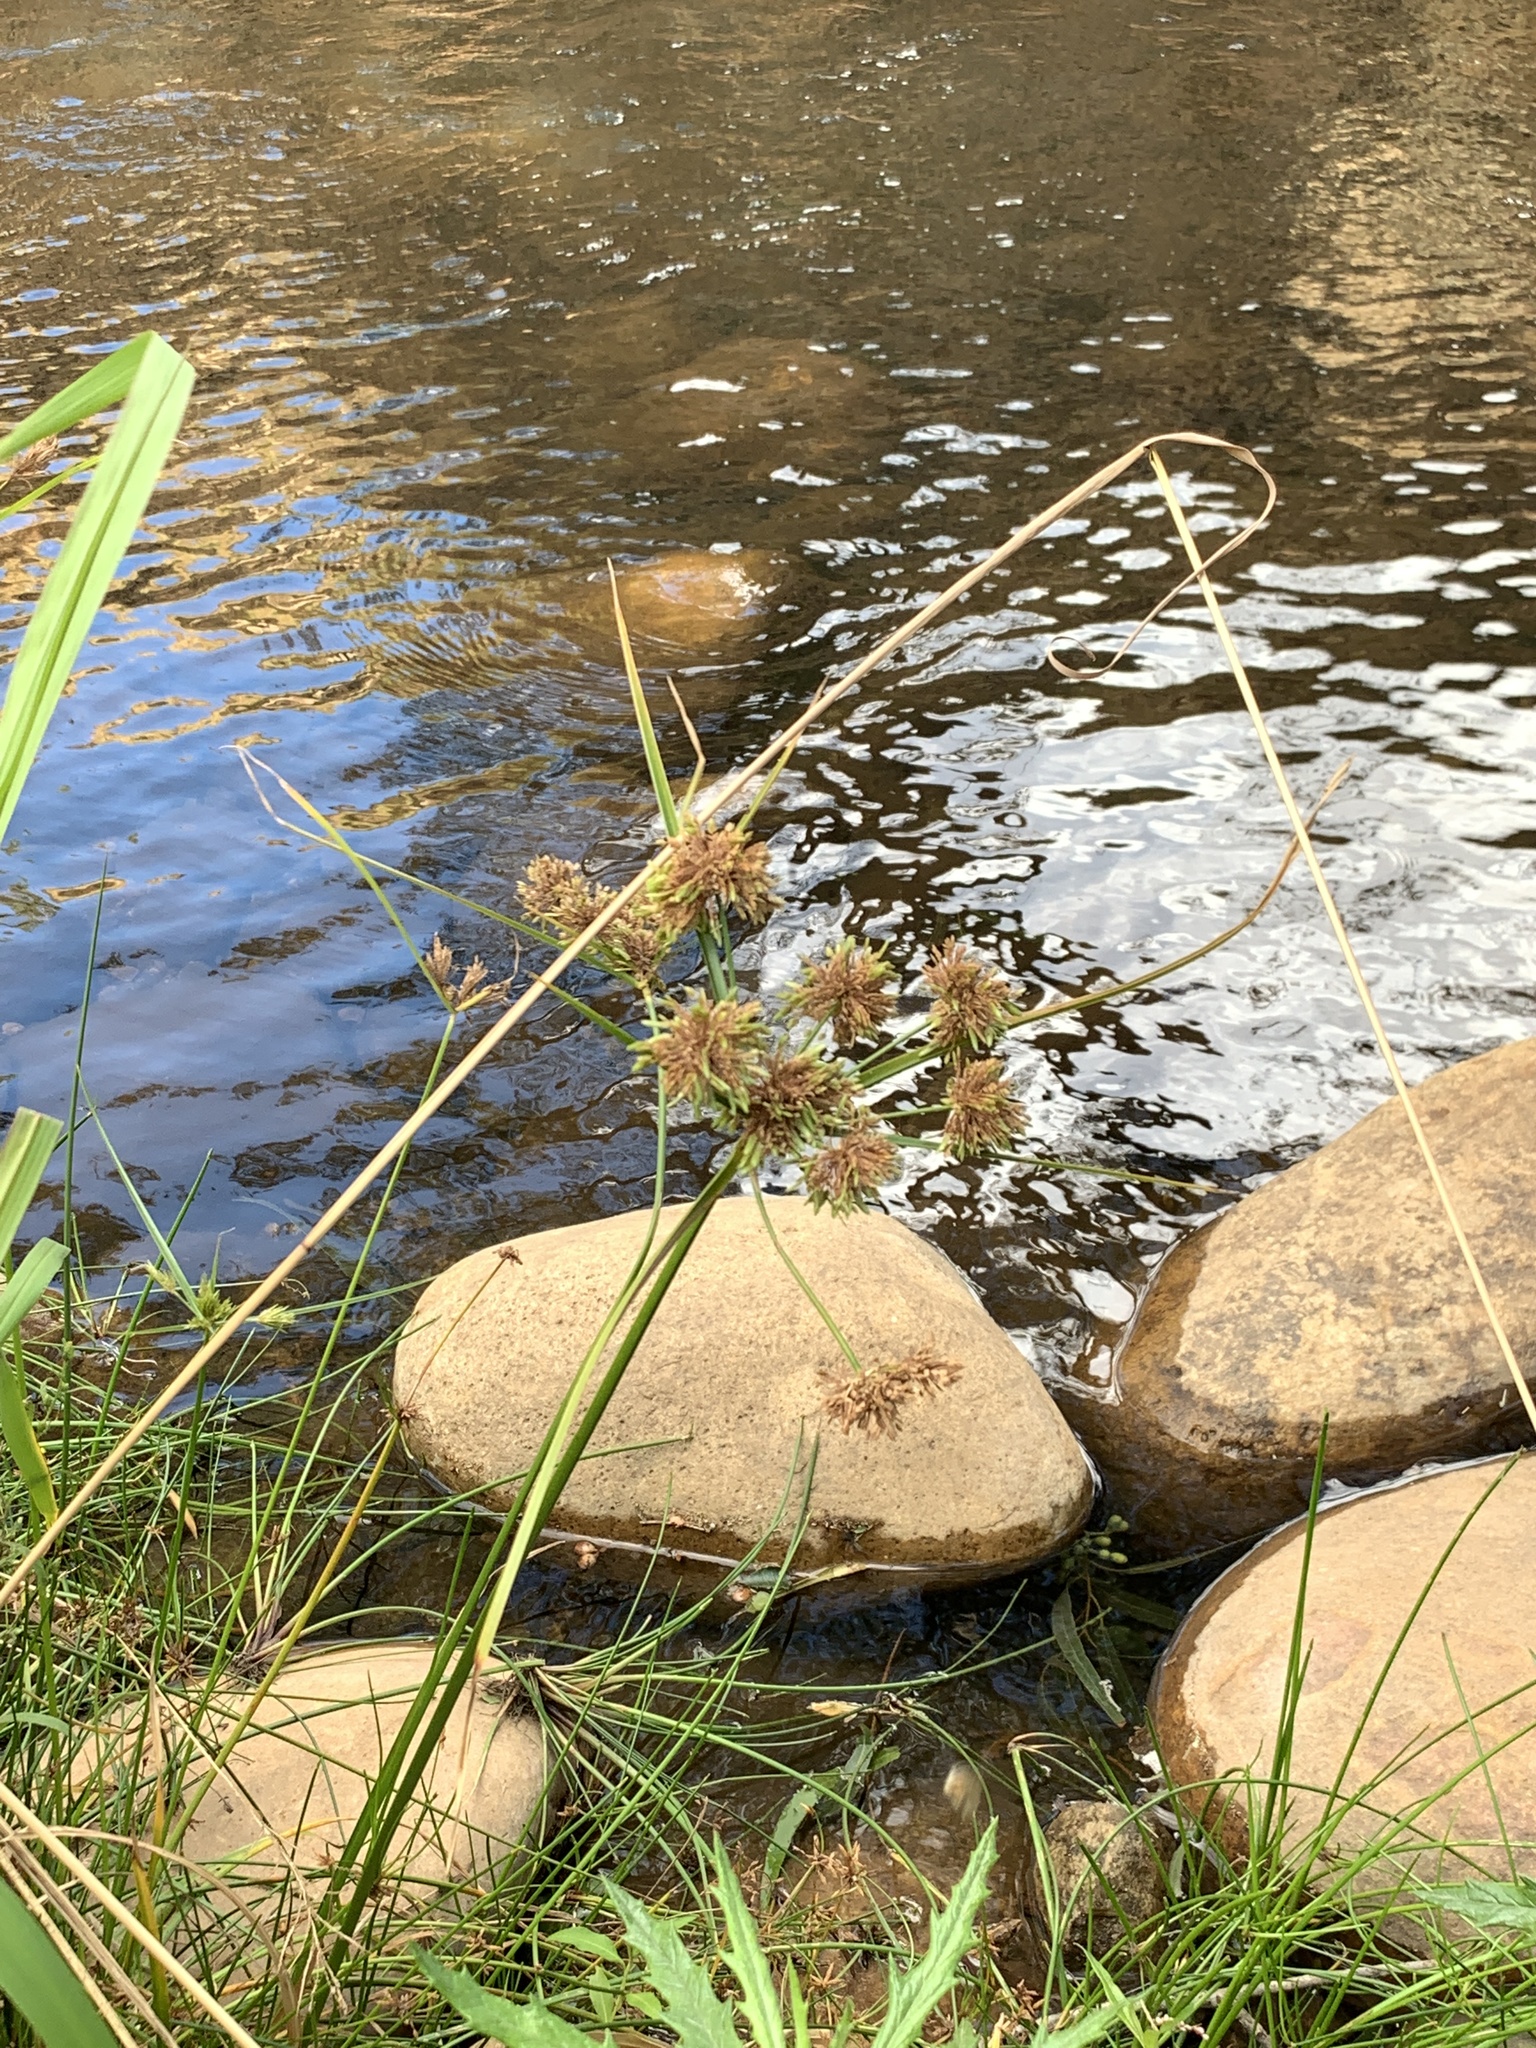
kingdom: Plantae
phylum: Tracheophyta
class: Liliopsida
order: Poales
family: Cyperaceae
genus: Cyperus
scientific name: Cyperus eragrostis
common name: Tall flatsedge
